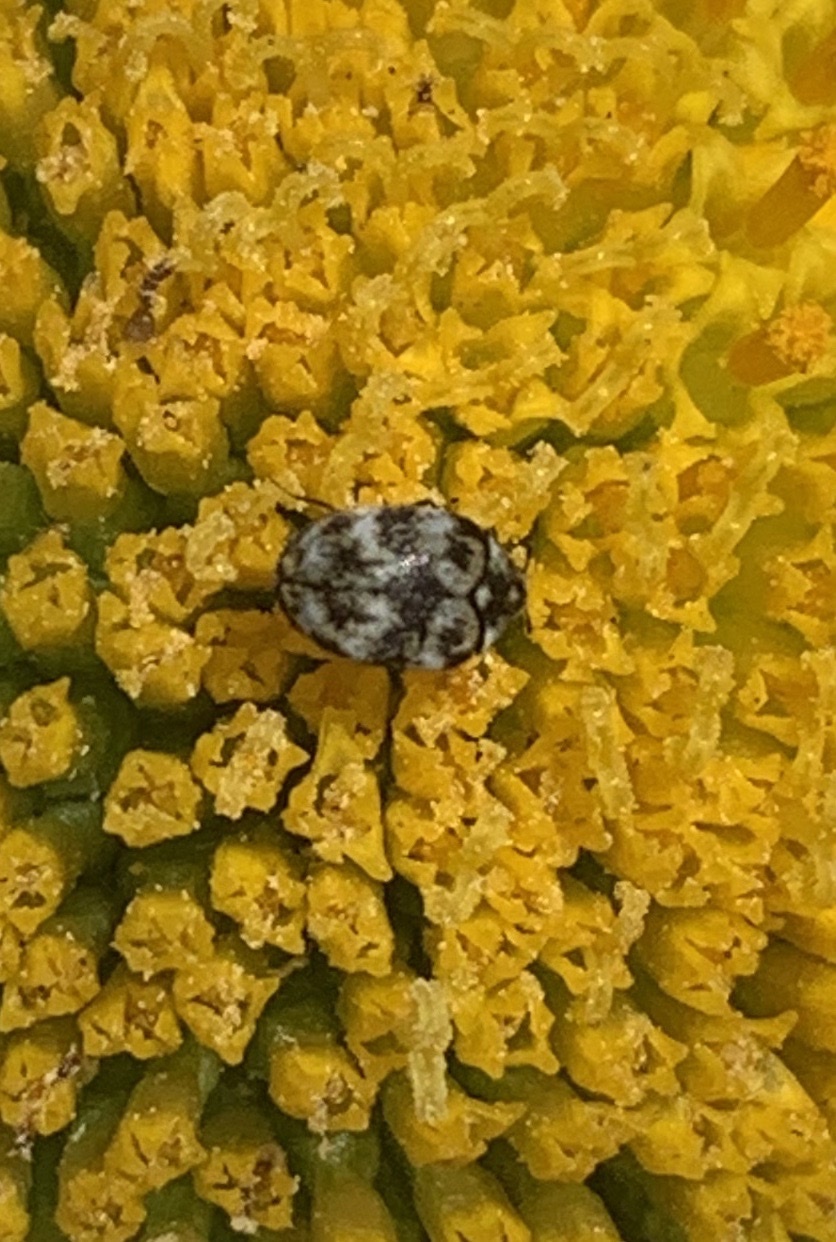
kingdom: Animalia
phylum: Arthropoda
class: Insecta
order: Coleoptera
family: Dermestidae
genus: Anthrenus
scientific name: Anthrenus verbasci
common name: Varied carpet beetle
